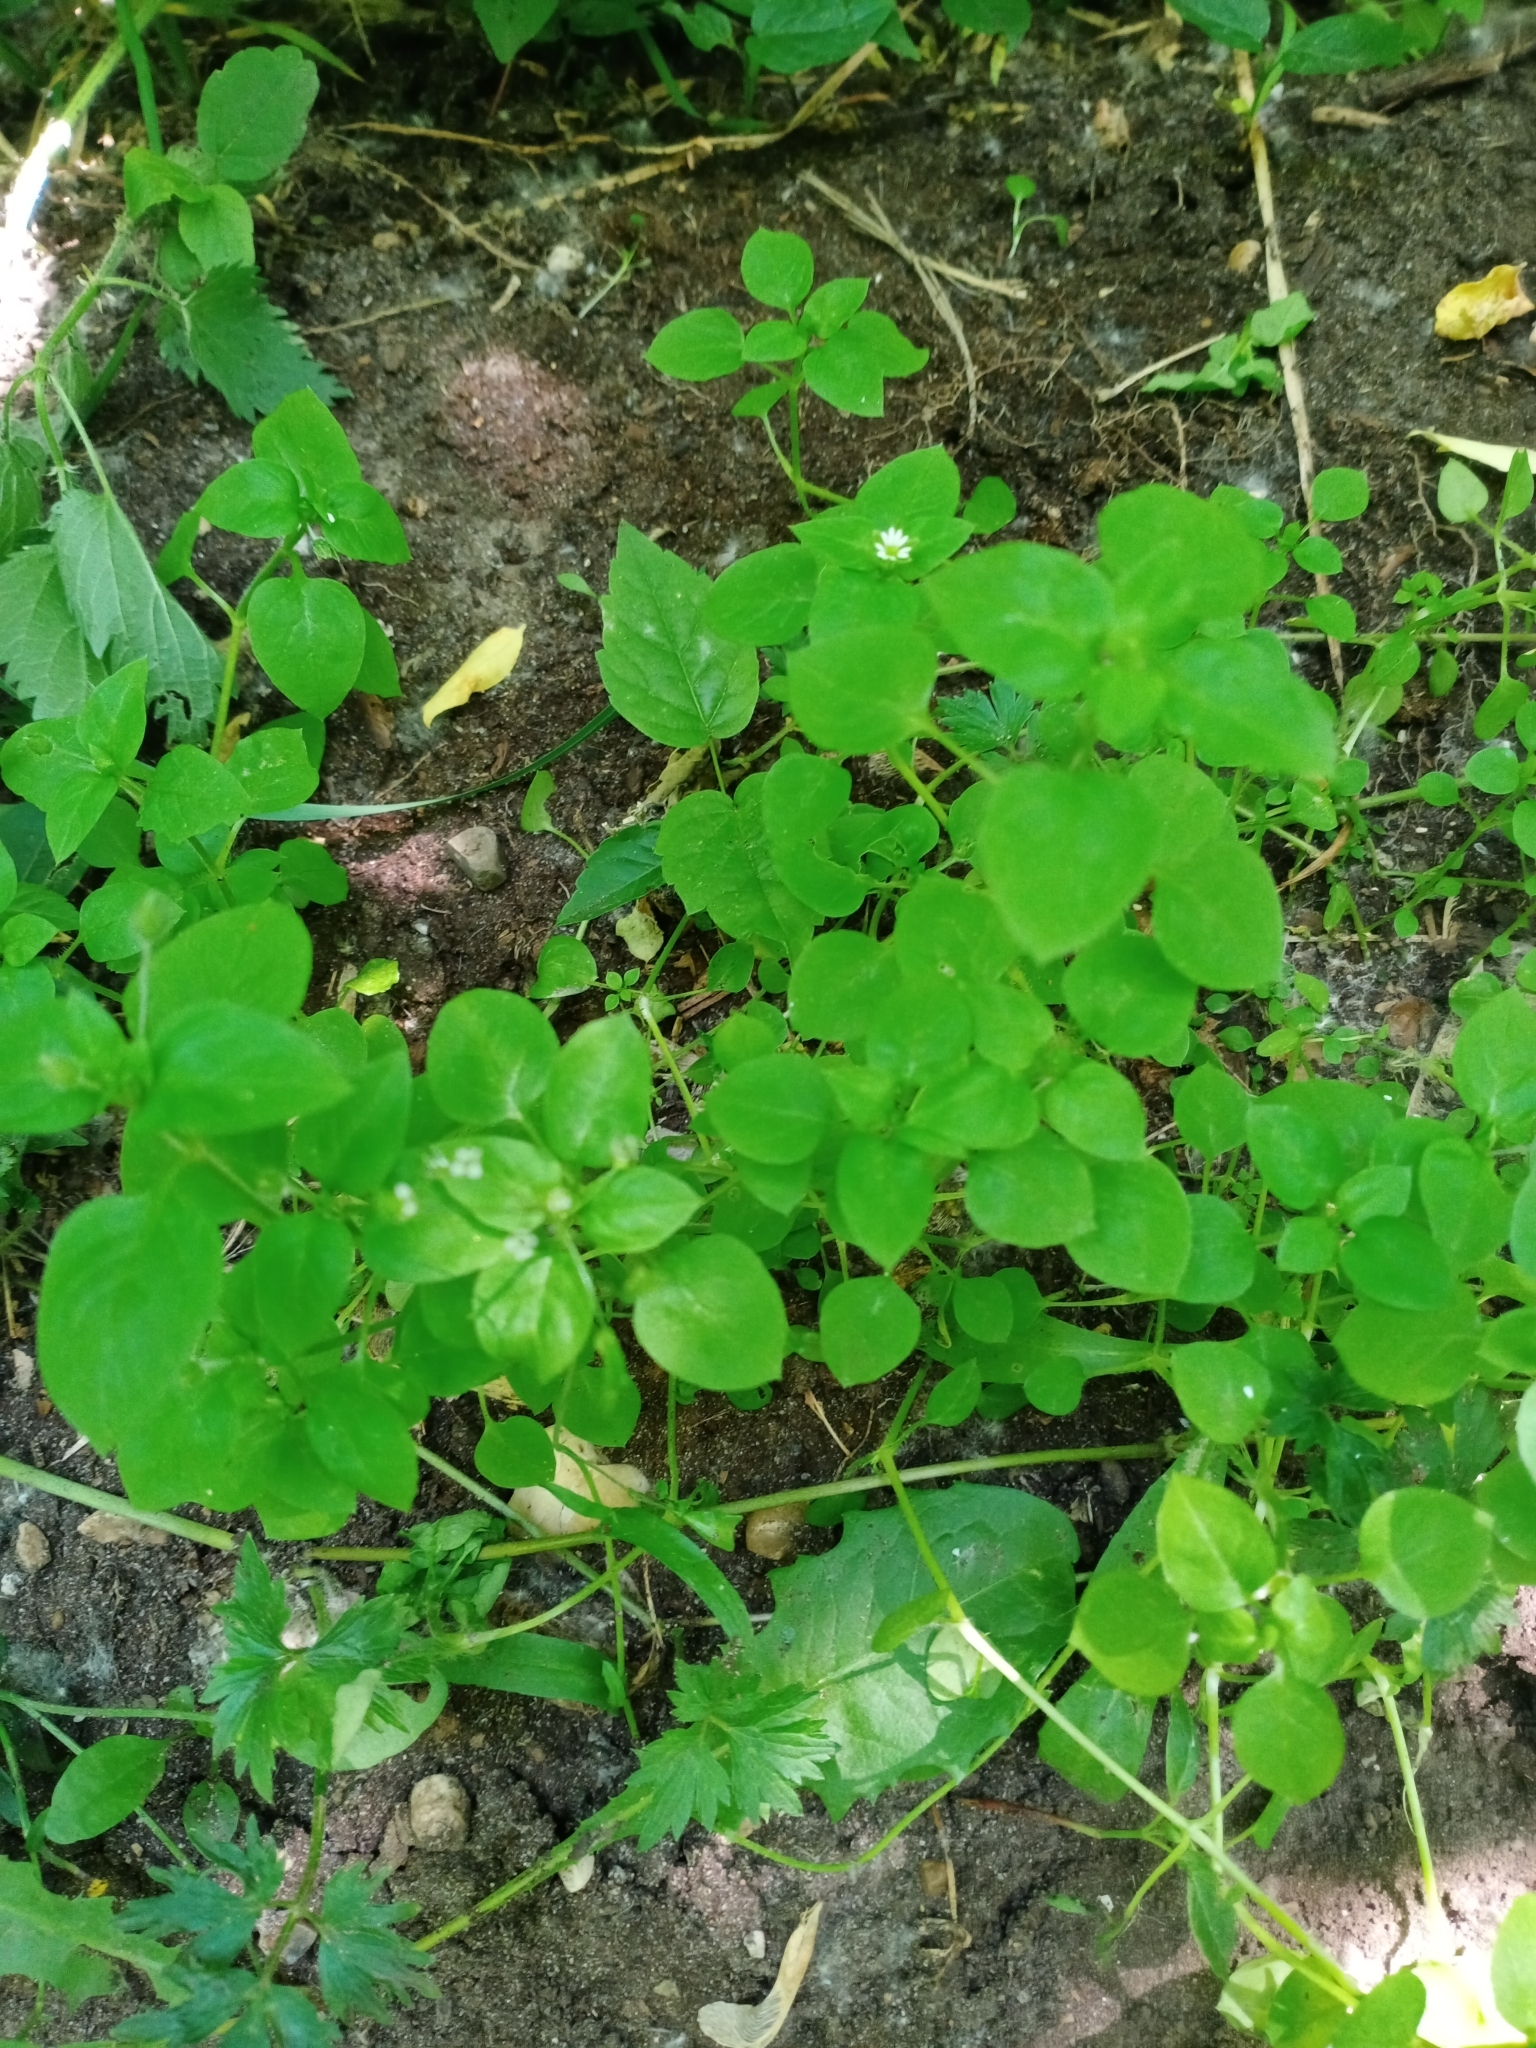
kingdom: Plantae
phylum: Tracheophyta
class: Magnoliopsida
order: Caryophyllales
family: Caryophyllaceae
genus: Stellaria
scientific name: Stellaria media
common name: Common chickweed
